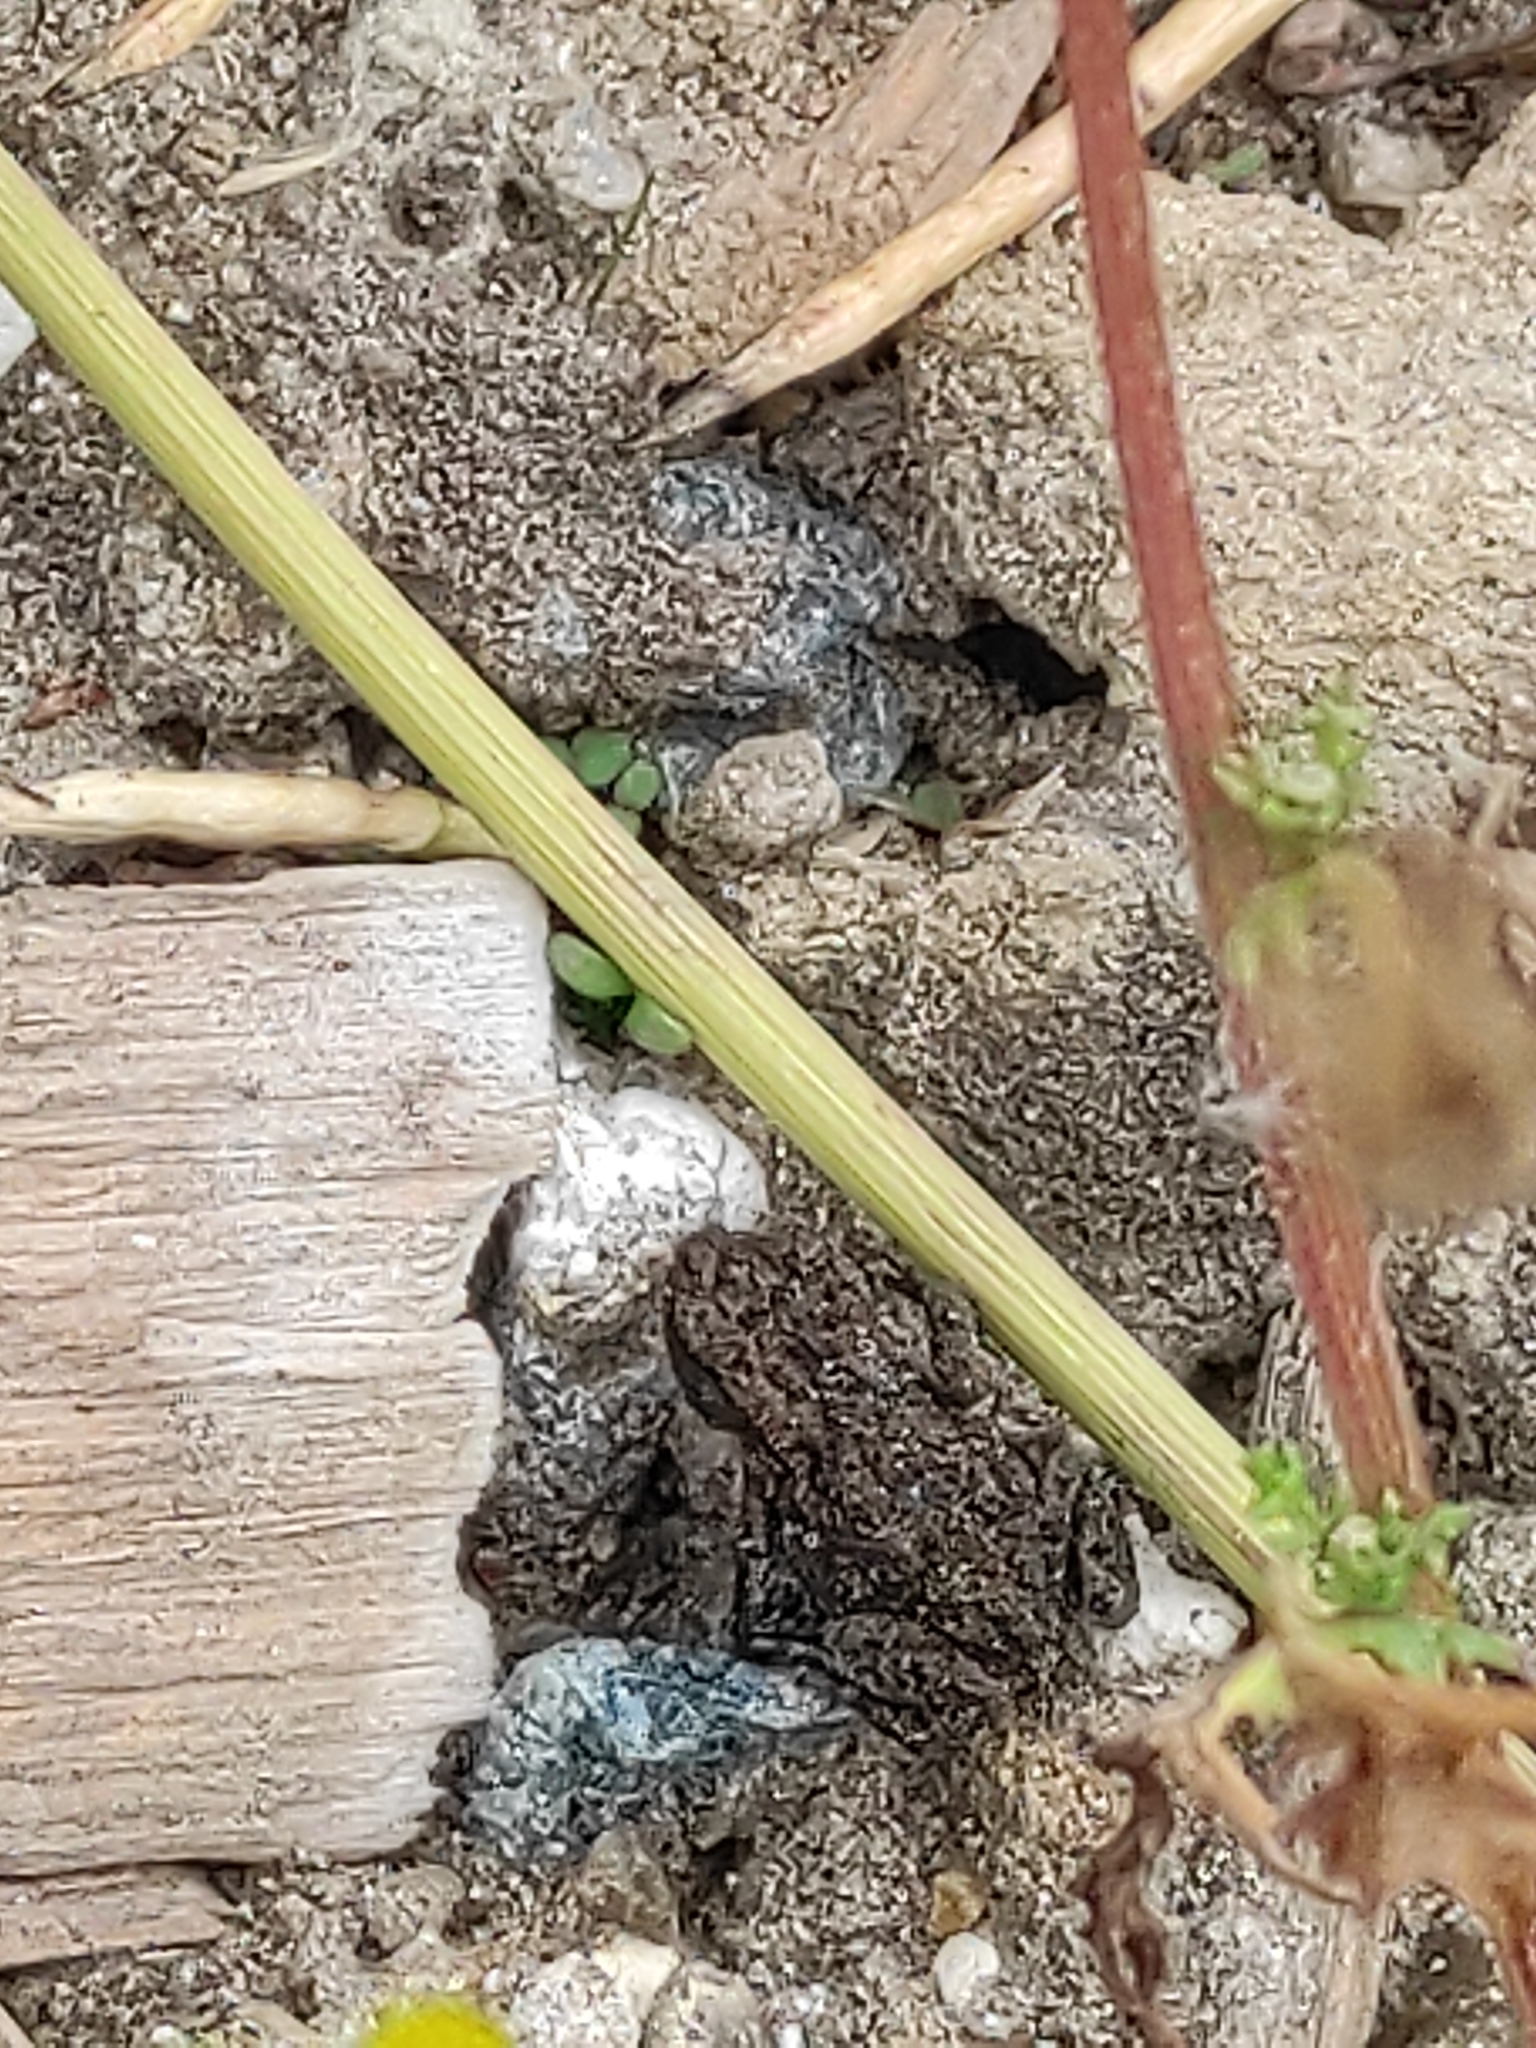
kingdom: Animalia
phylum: Chordata
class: Amphibia
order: Anura
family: Bufonidae
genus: Bufo
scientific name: Bufo bufo
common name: Common toad
